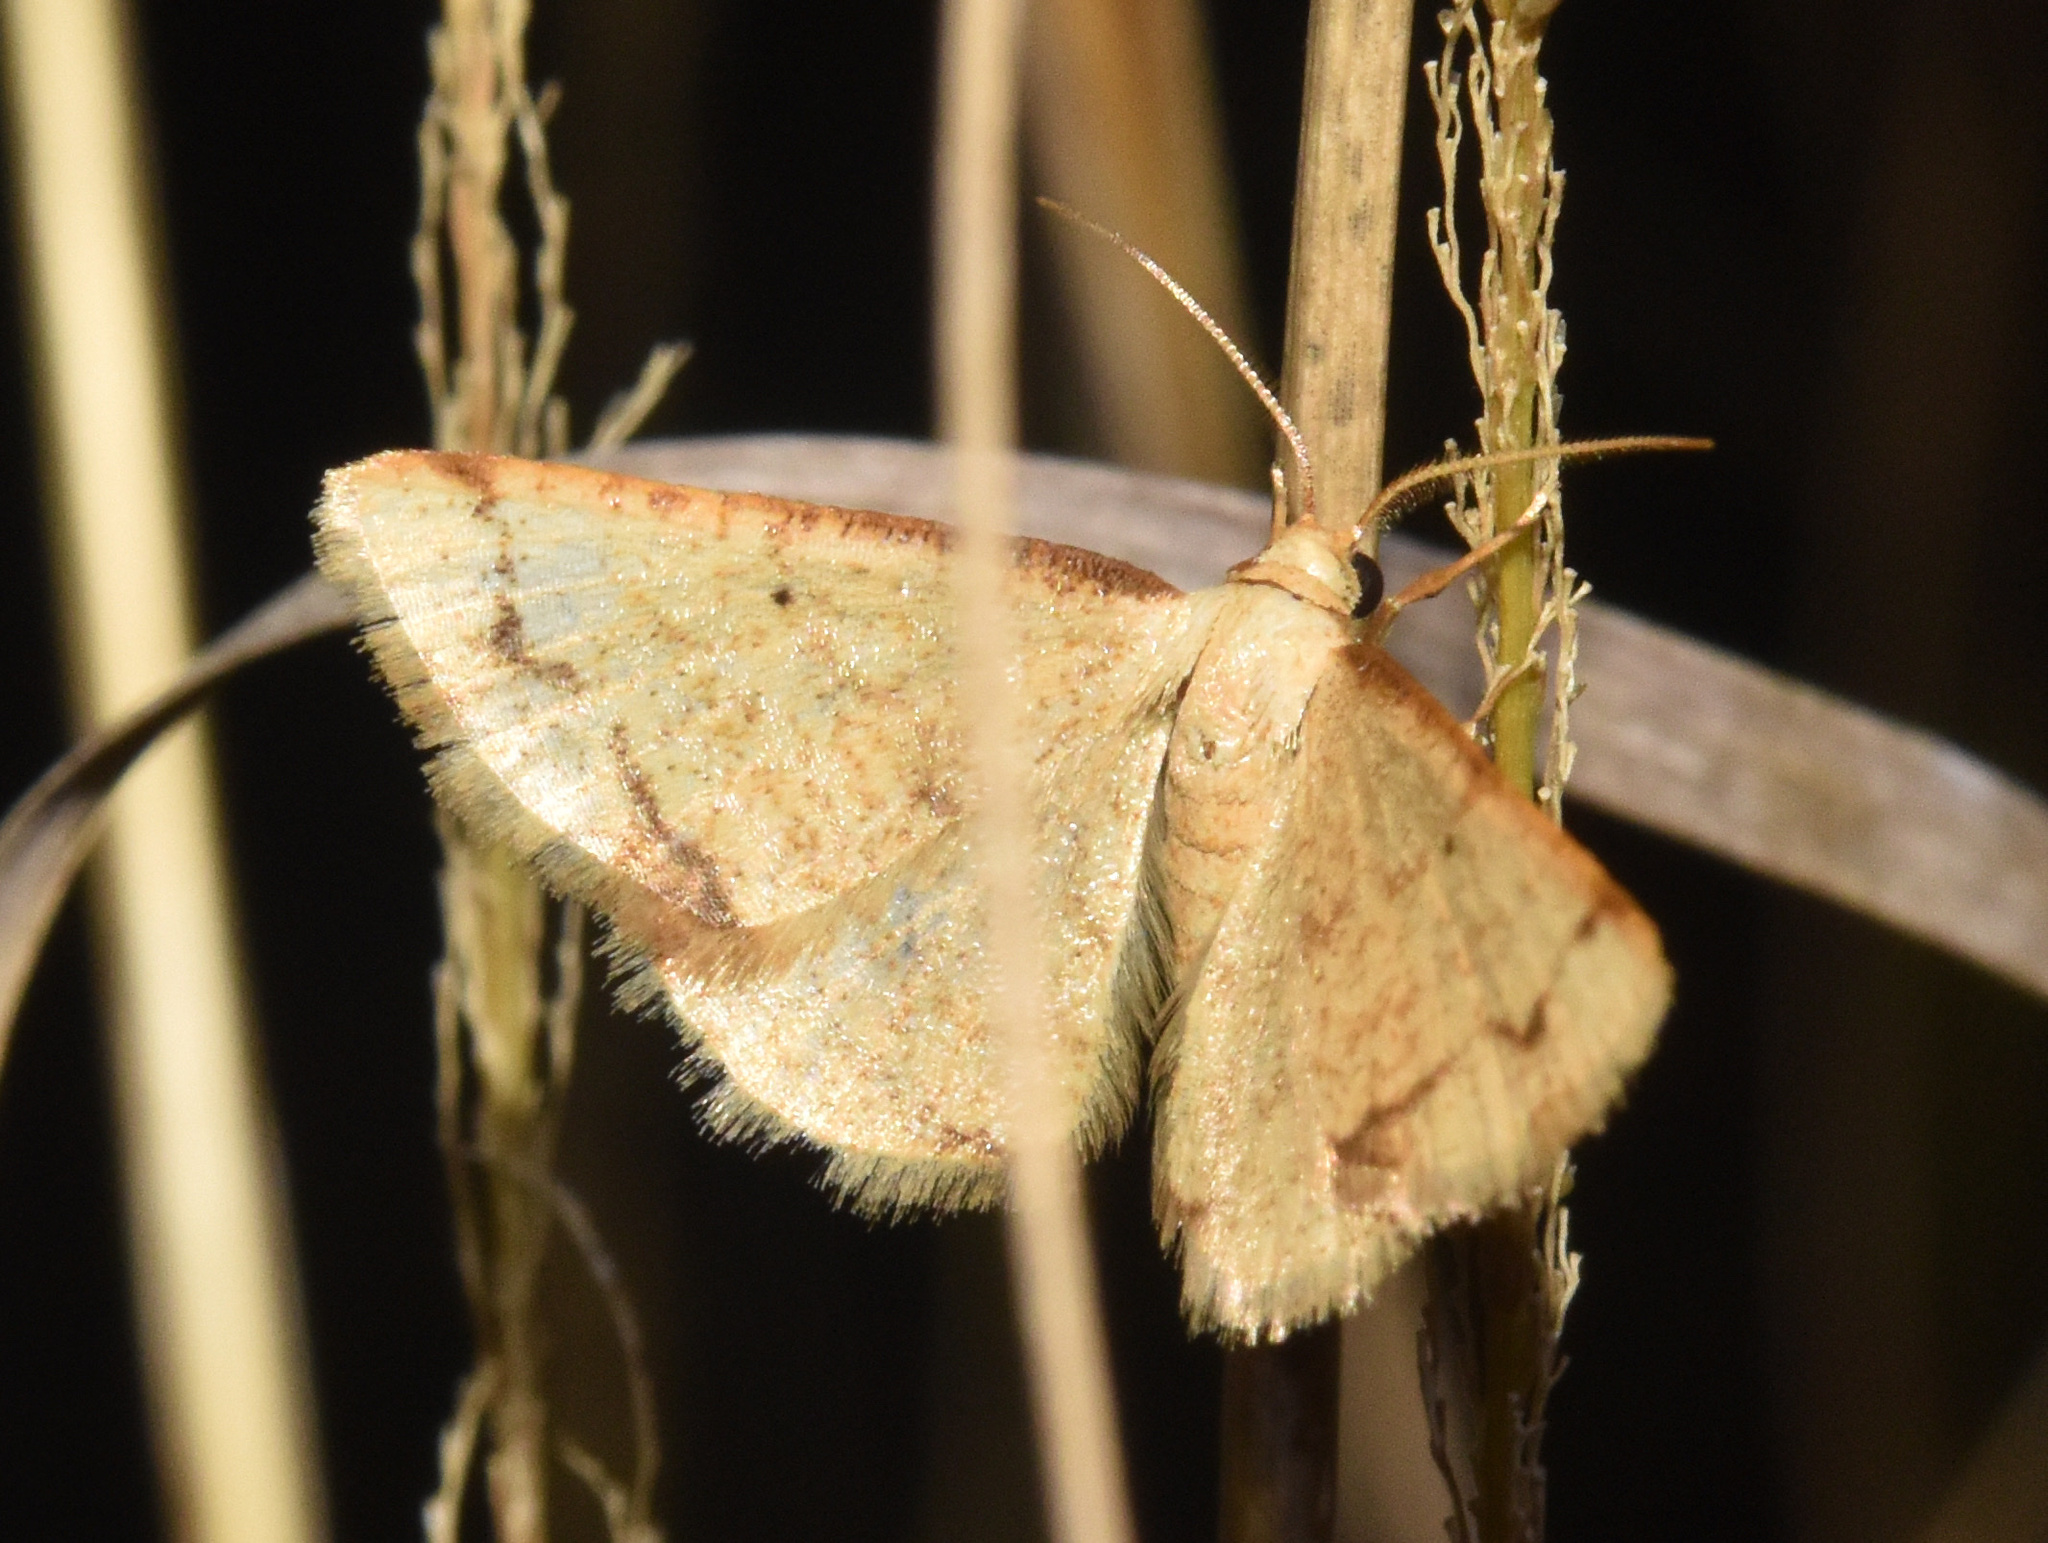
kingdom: Animalia
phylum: Arthropoda
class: Insecta
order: Lepidoptera
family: Geometridae
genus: Lomographa
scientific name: Lomographa aridata
